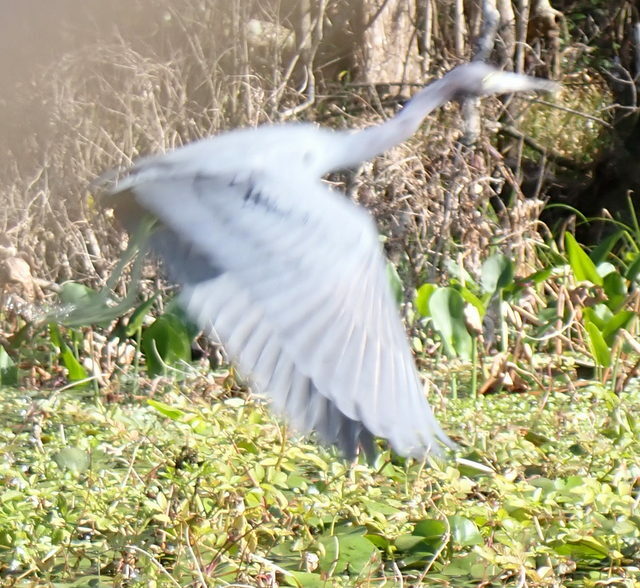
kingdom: Animalia
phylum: Chordata
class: Aves
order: Pelecaniformes
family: Ardeidae
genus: Egretta
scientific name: Egretta caerulea
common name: Little blue heron
